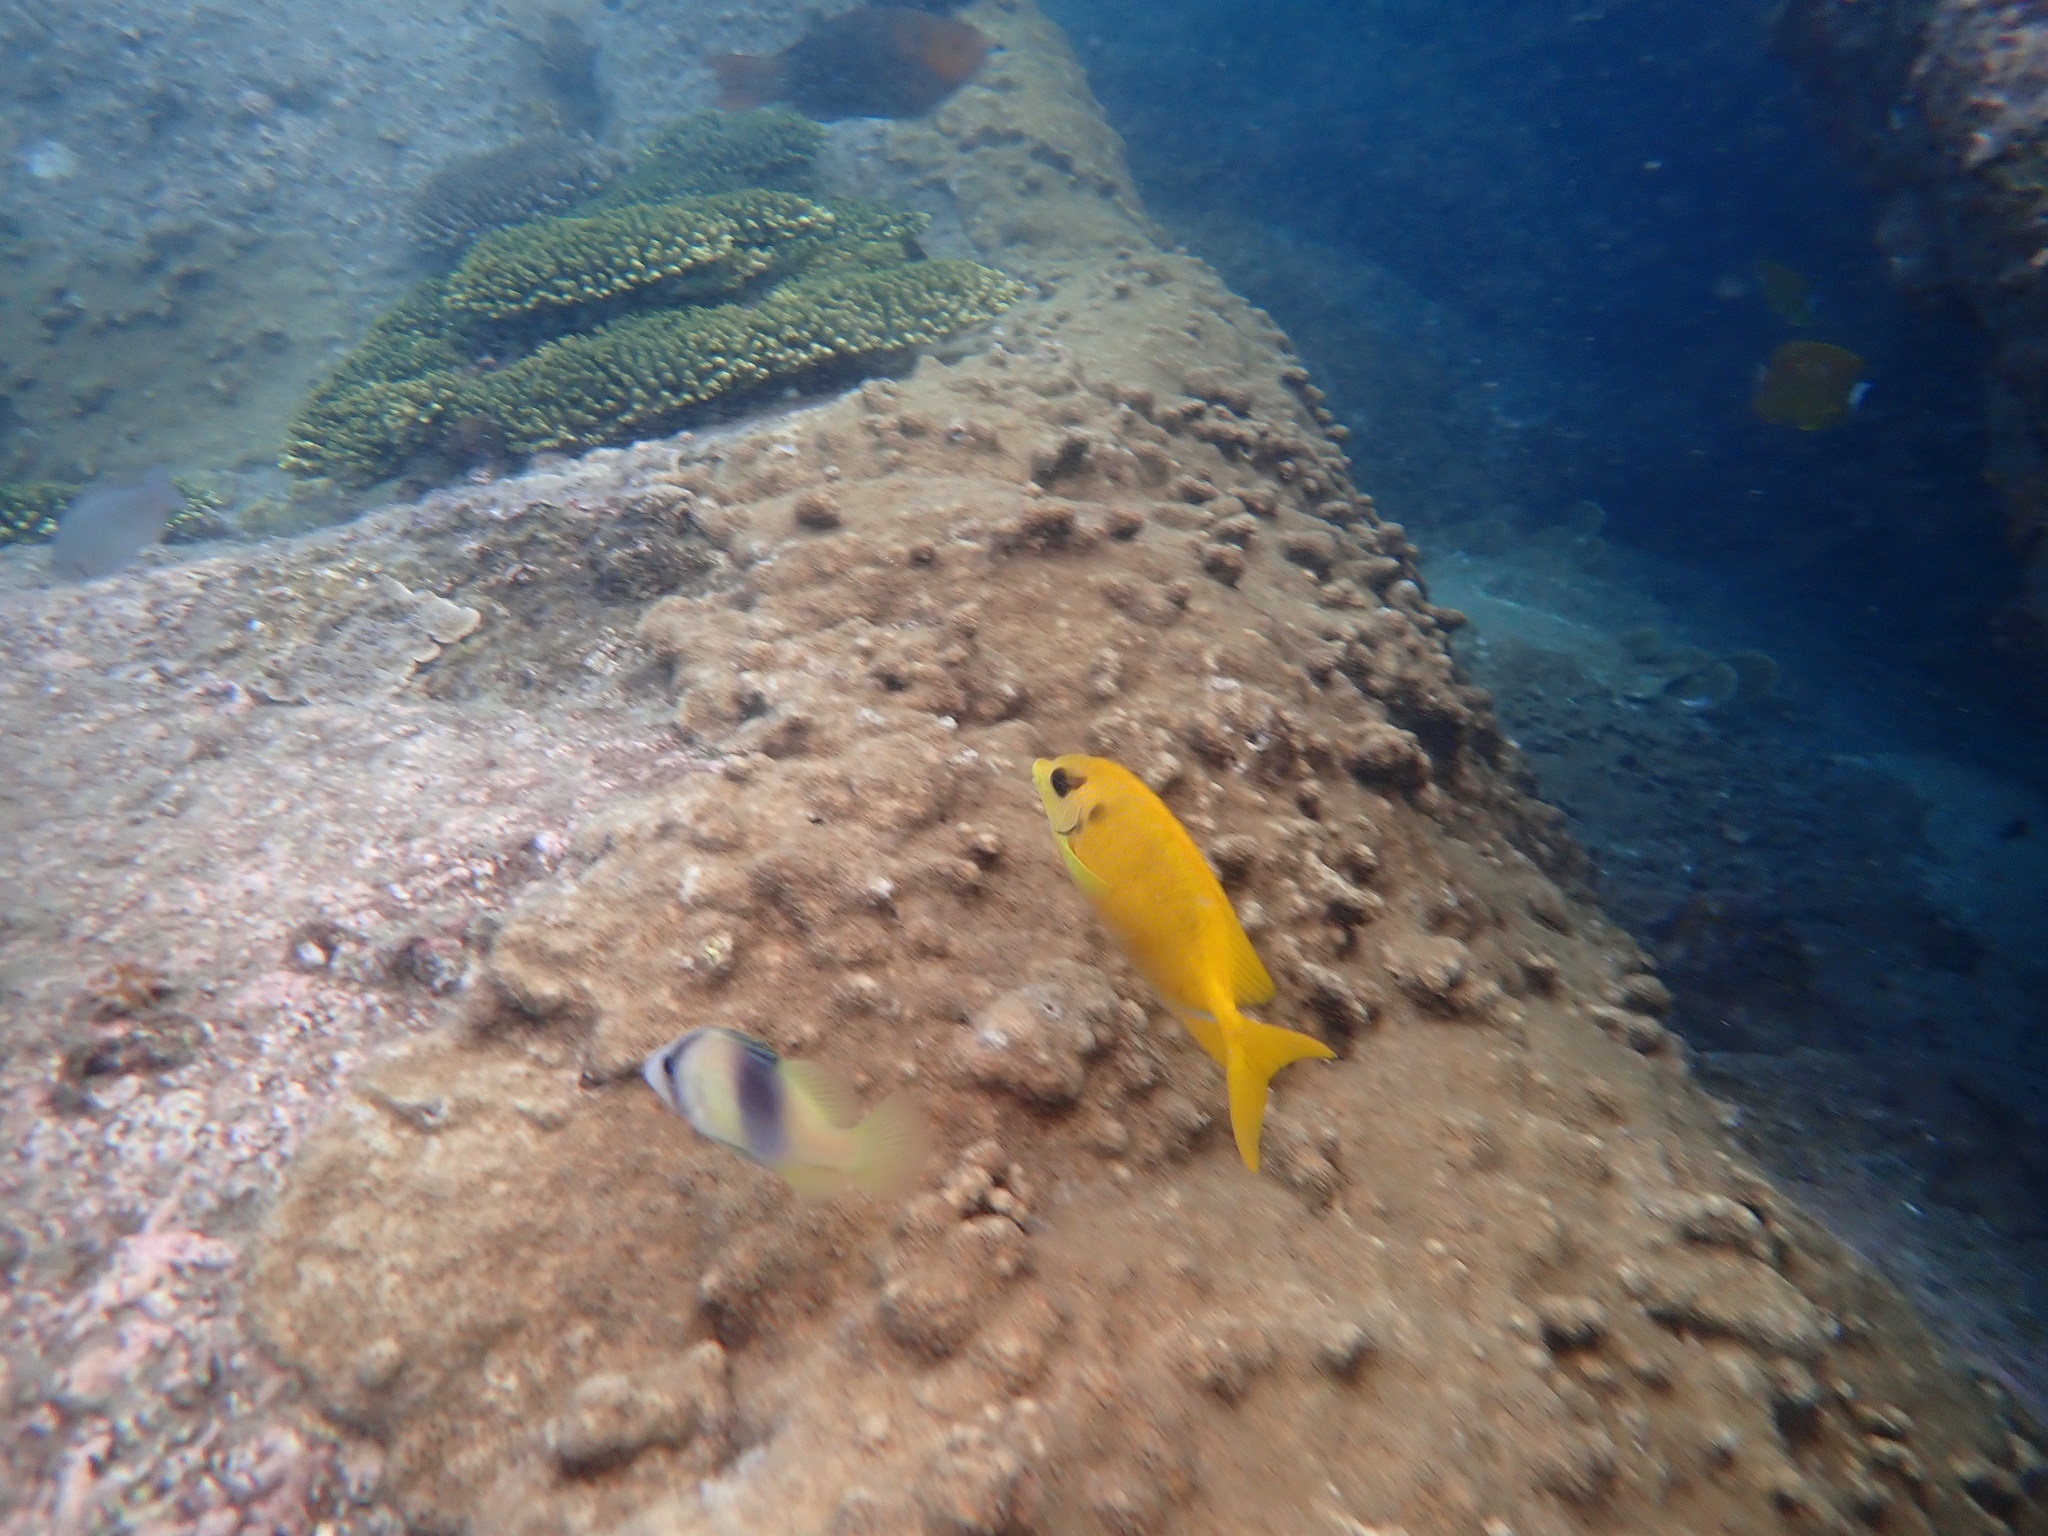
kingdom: Animalia
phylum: Chordata
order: Perciformes
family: Siganidae
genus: Siganus
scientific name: Siganus corallinus
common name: Coral rabbitfish
